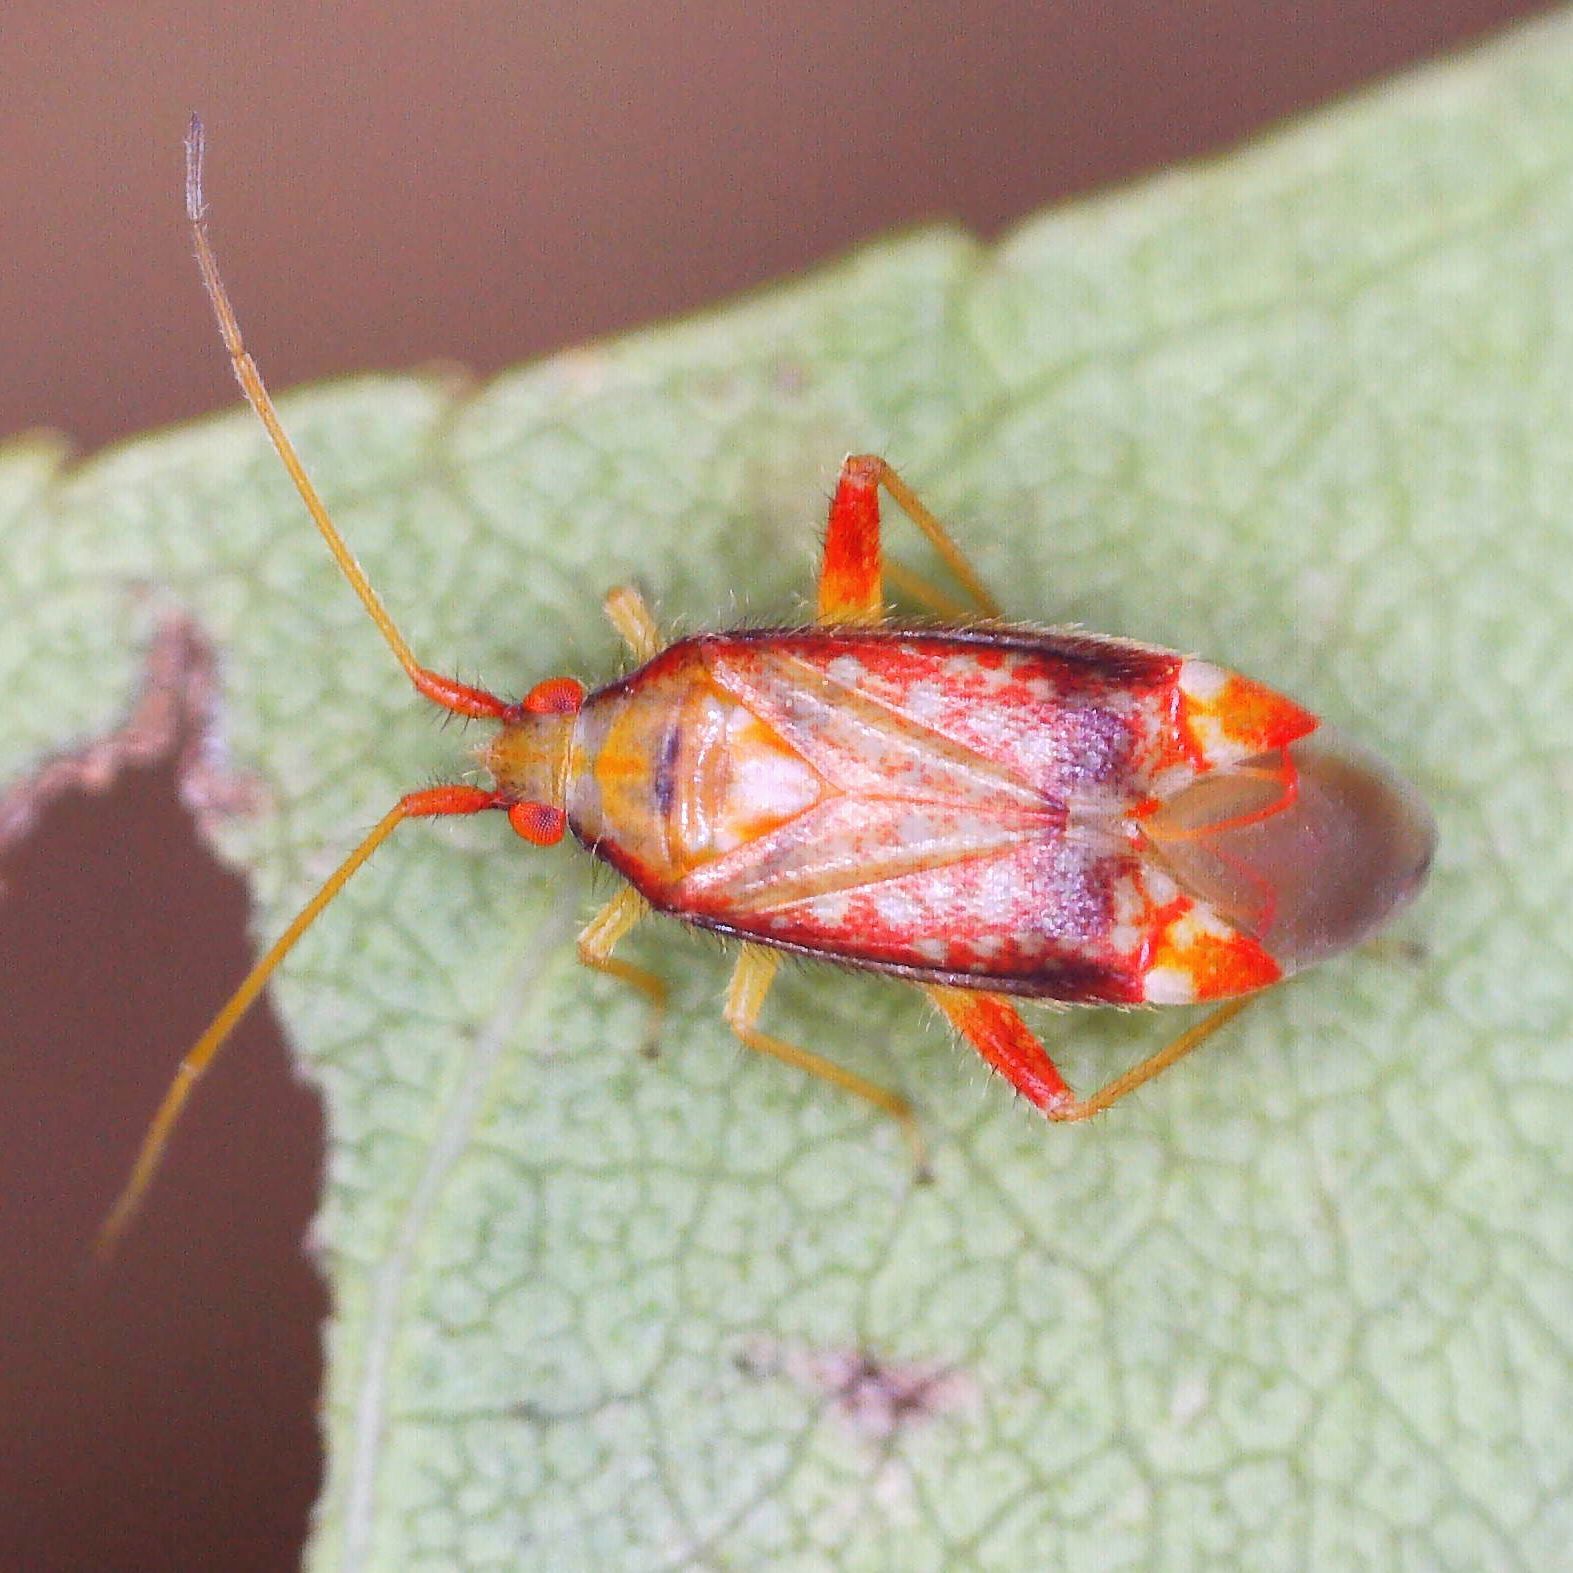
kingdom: Animalia
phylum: Arthropoda
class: Insecta
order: Hemiptera
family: Miridae
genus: Pseudoloxops
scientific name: Pseudoloxops coccineus
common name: Plant bug
